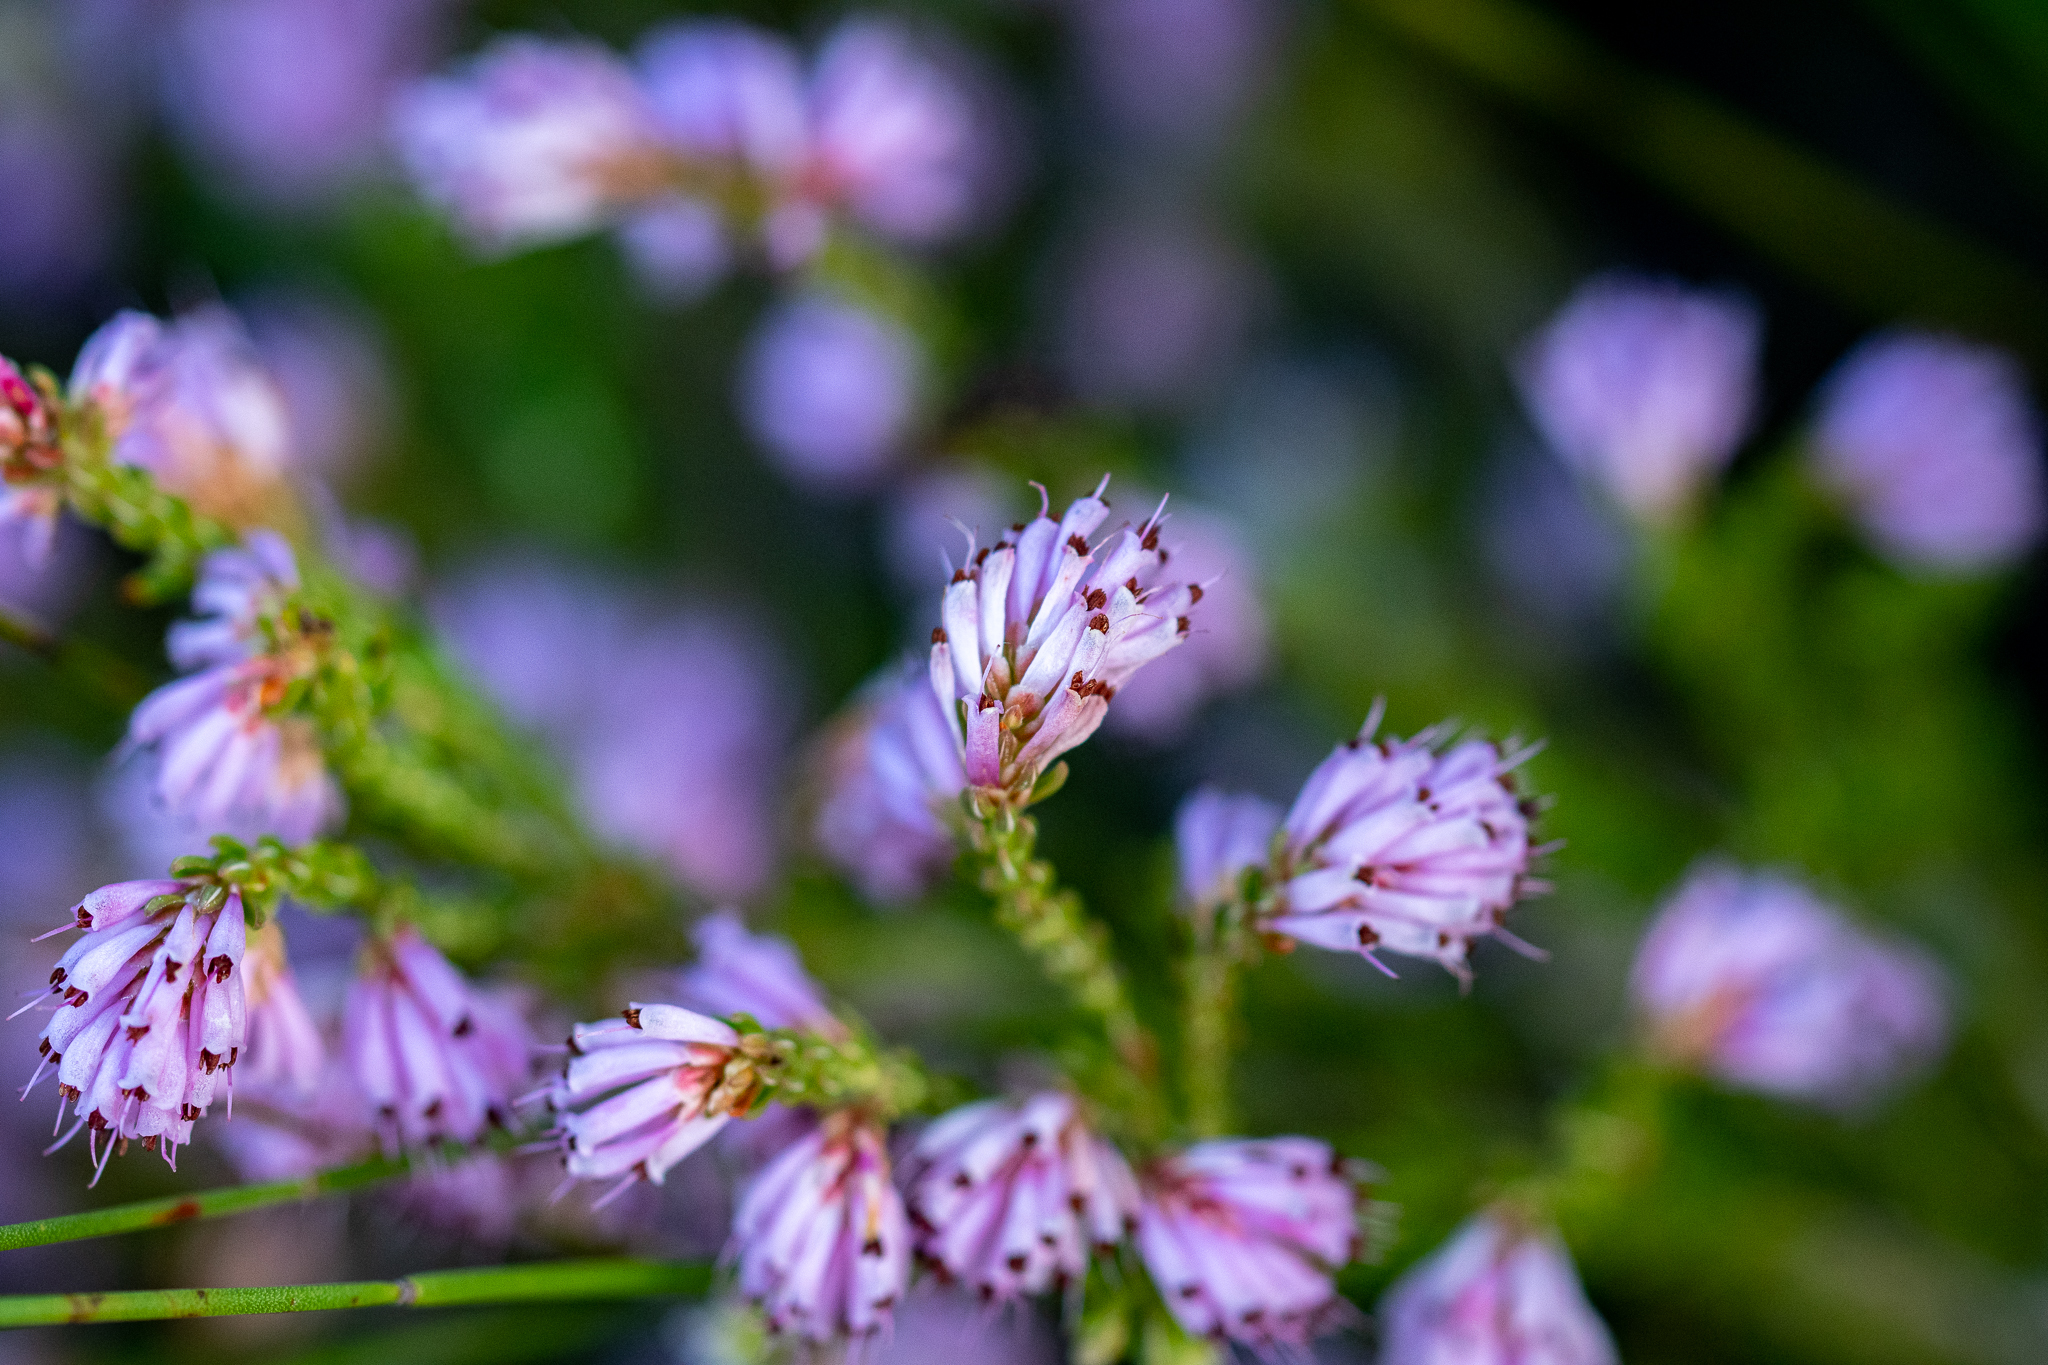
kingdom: Plantae
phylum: Tracheophyta
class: Magnoliopsida
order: Ericales
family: Ericaceae
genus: Erica
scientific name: Erica labialis
